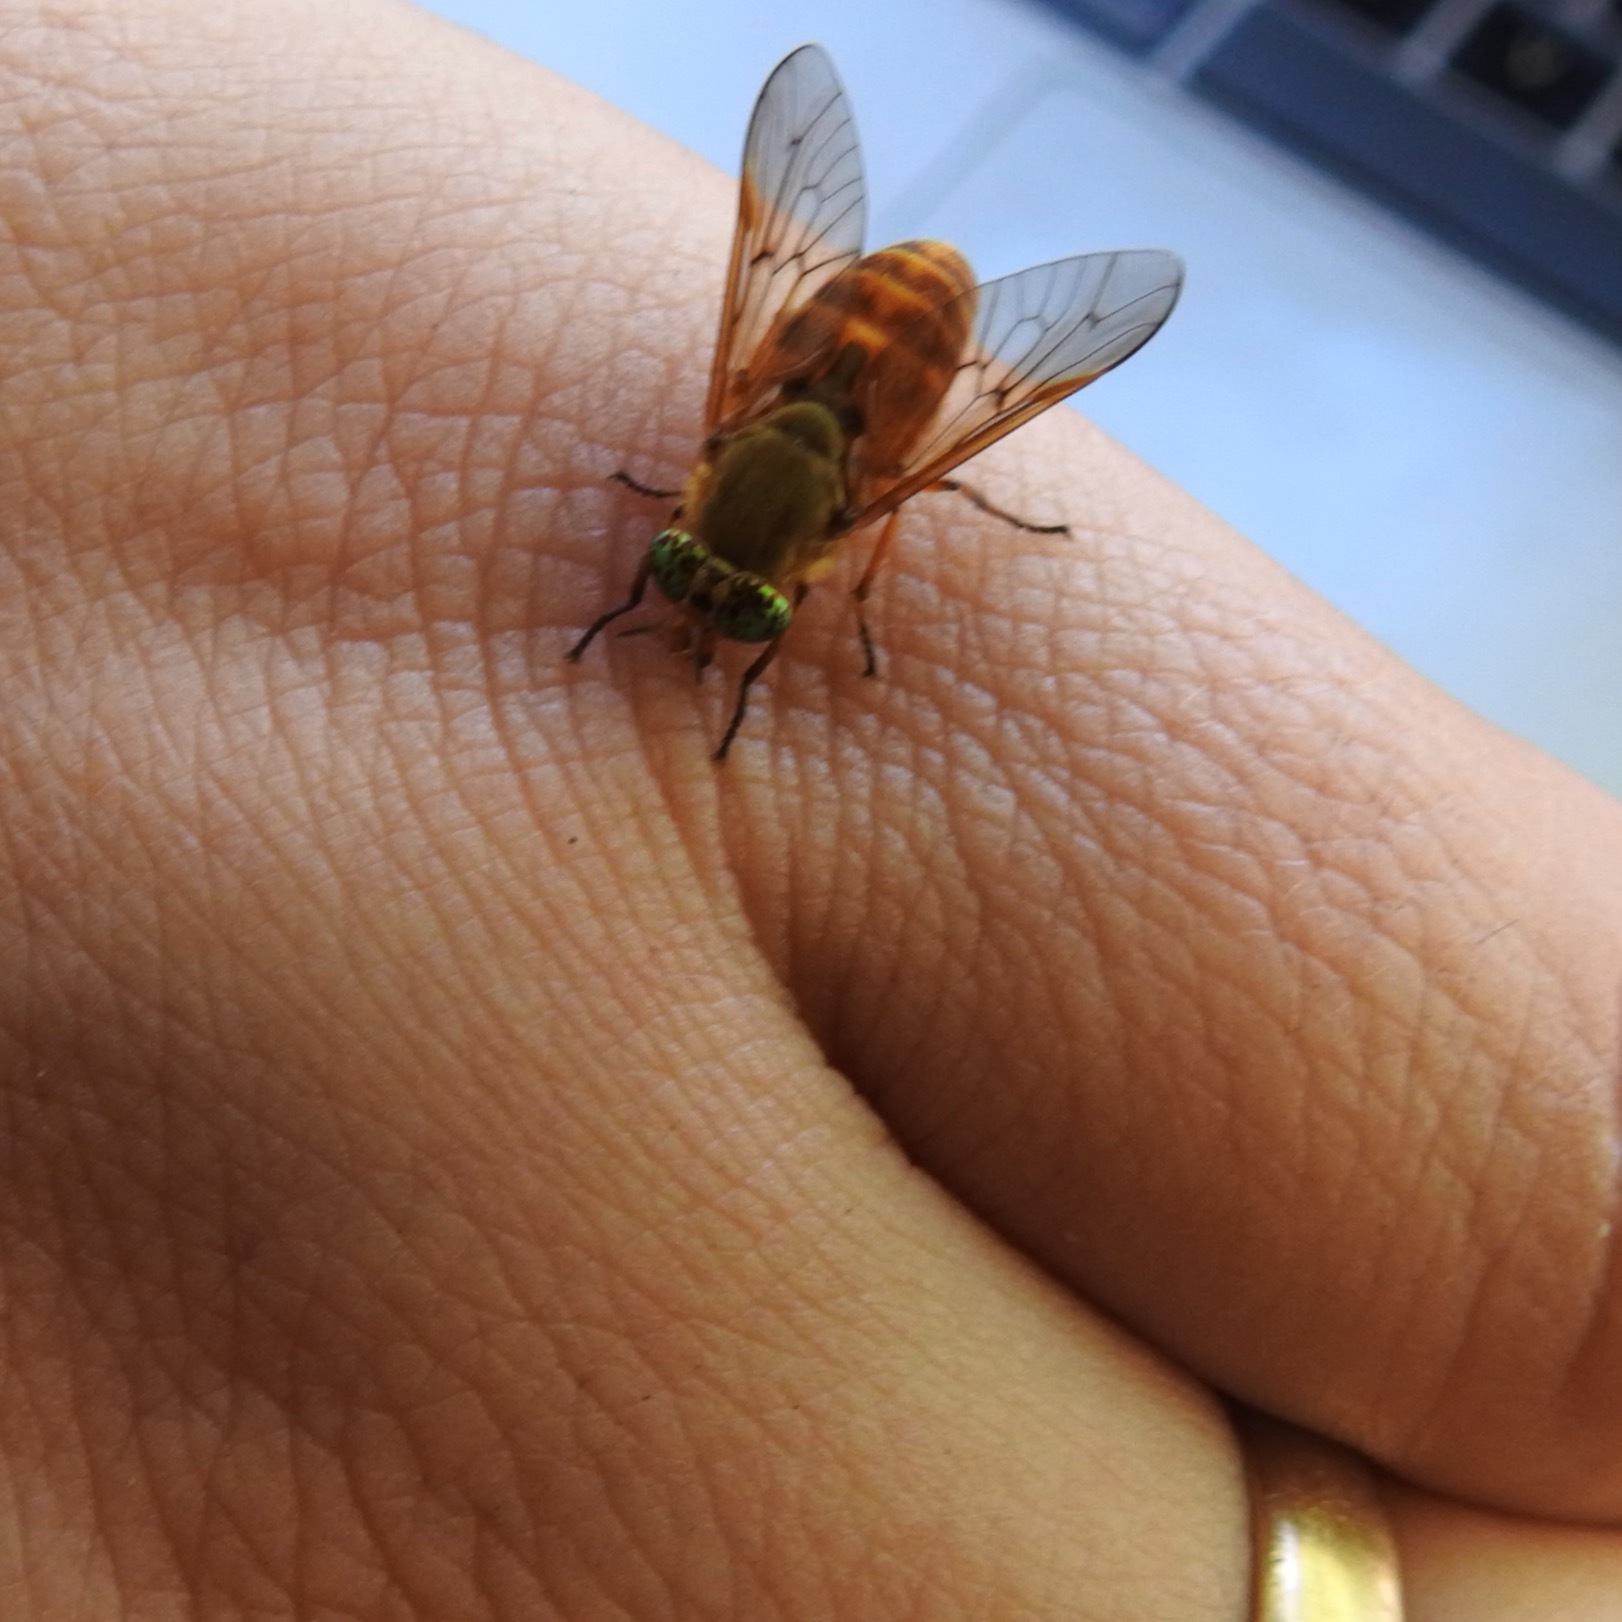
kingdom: Animalia
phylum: Arthropoda
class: Insecta
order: Diptera
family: Tabanidae
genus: Silvius
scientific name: Silvius gigantulus
